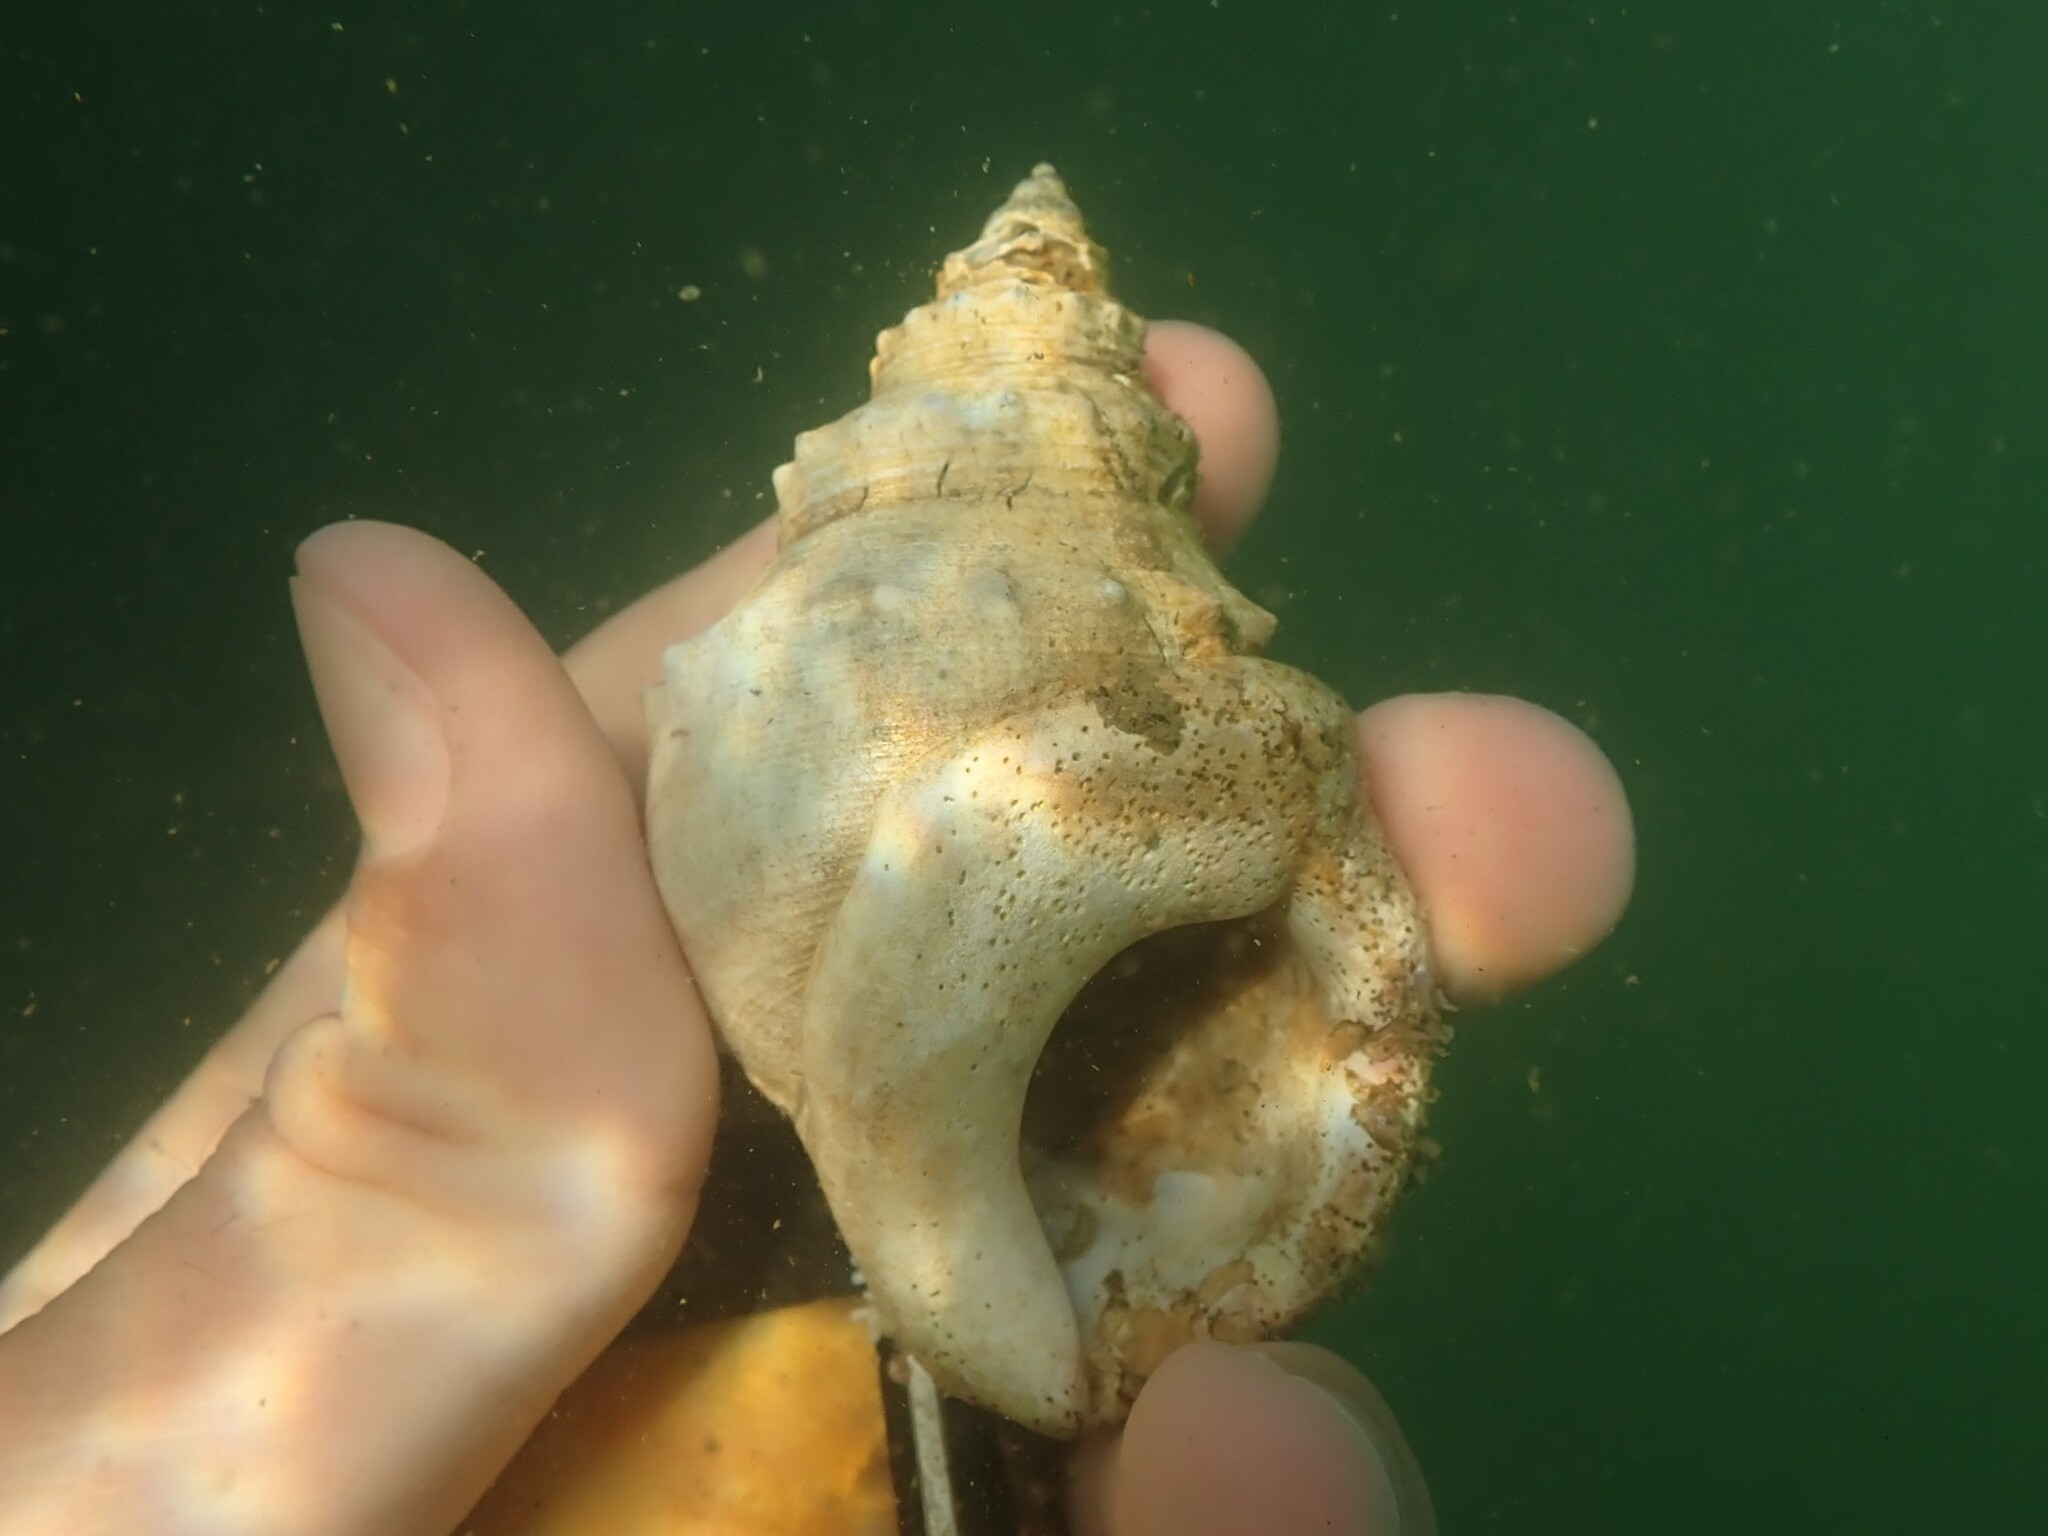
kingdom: Animalia
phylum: Mollusca
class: Gastropoda
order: Littorinimorpha
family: Struthiolariidae
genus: Struthiolaria
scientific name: Struthiolaria papulosa
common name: Large ostrich foot
